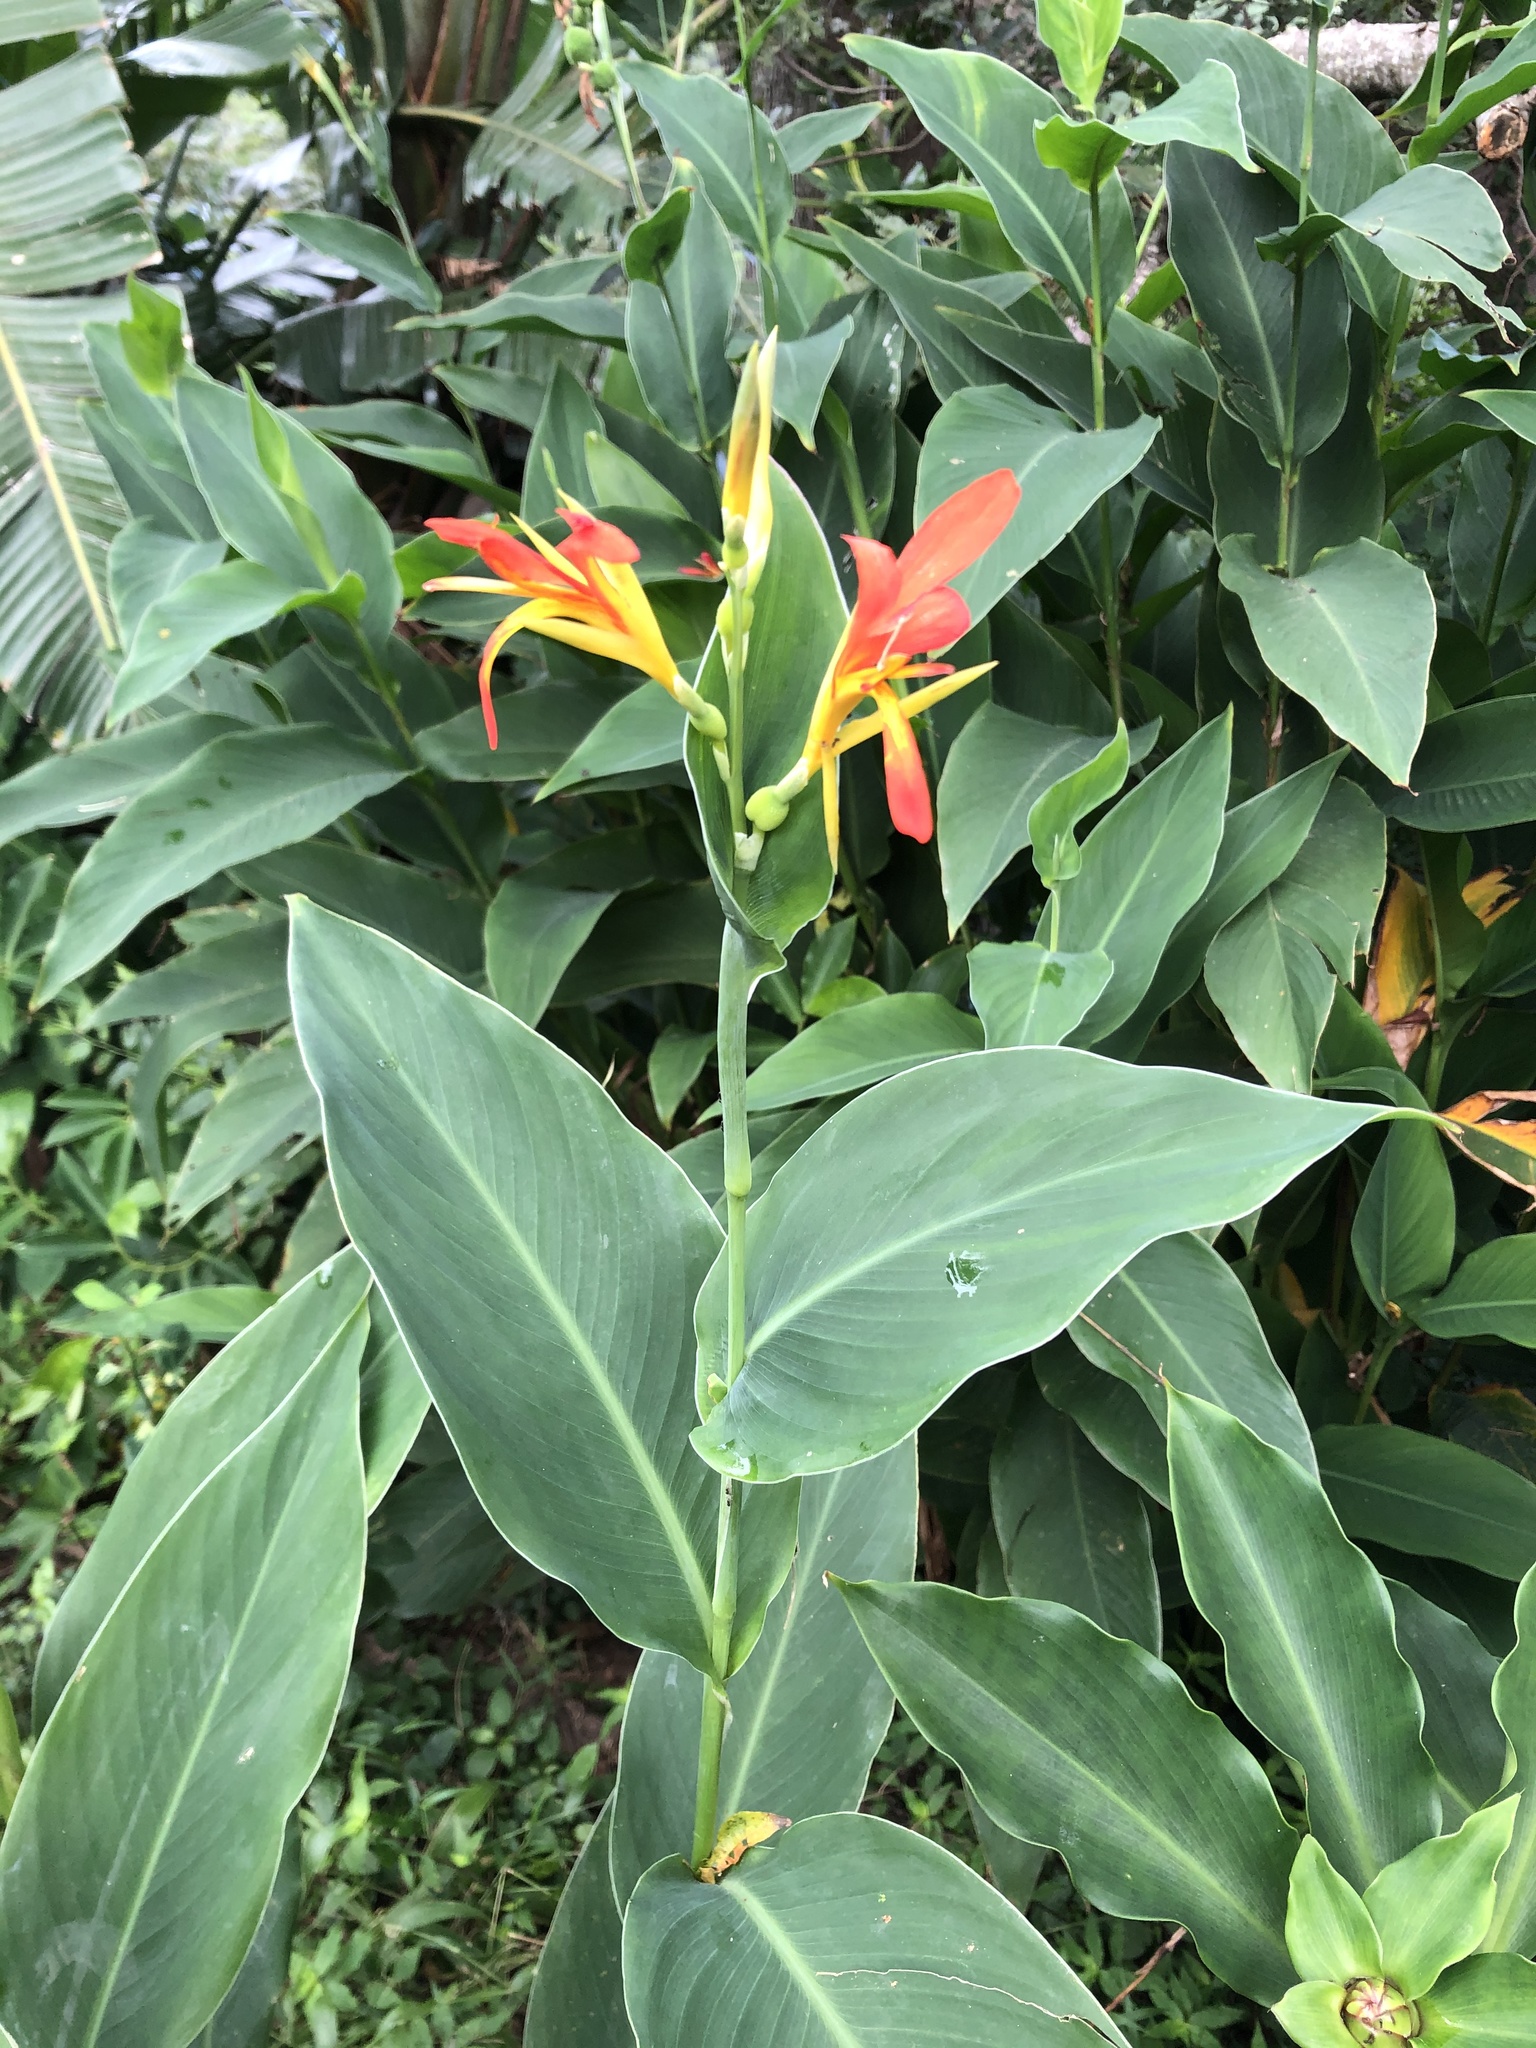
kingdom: Plantae
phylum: Tracheophyta
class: Liliopsida
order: Zingiberales
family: Cannaceae
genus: Canna
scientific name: Canna indica
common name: Indian shot
